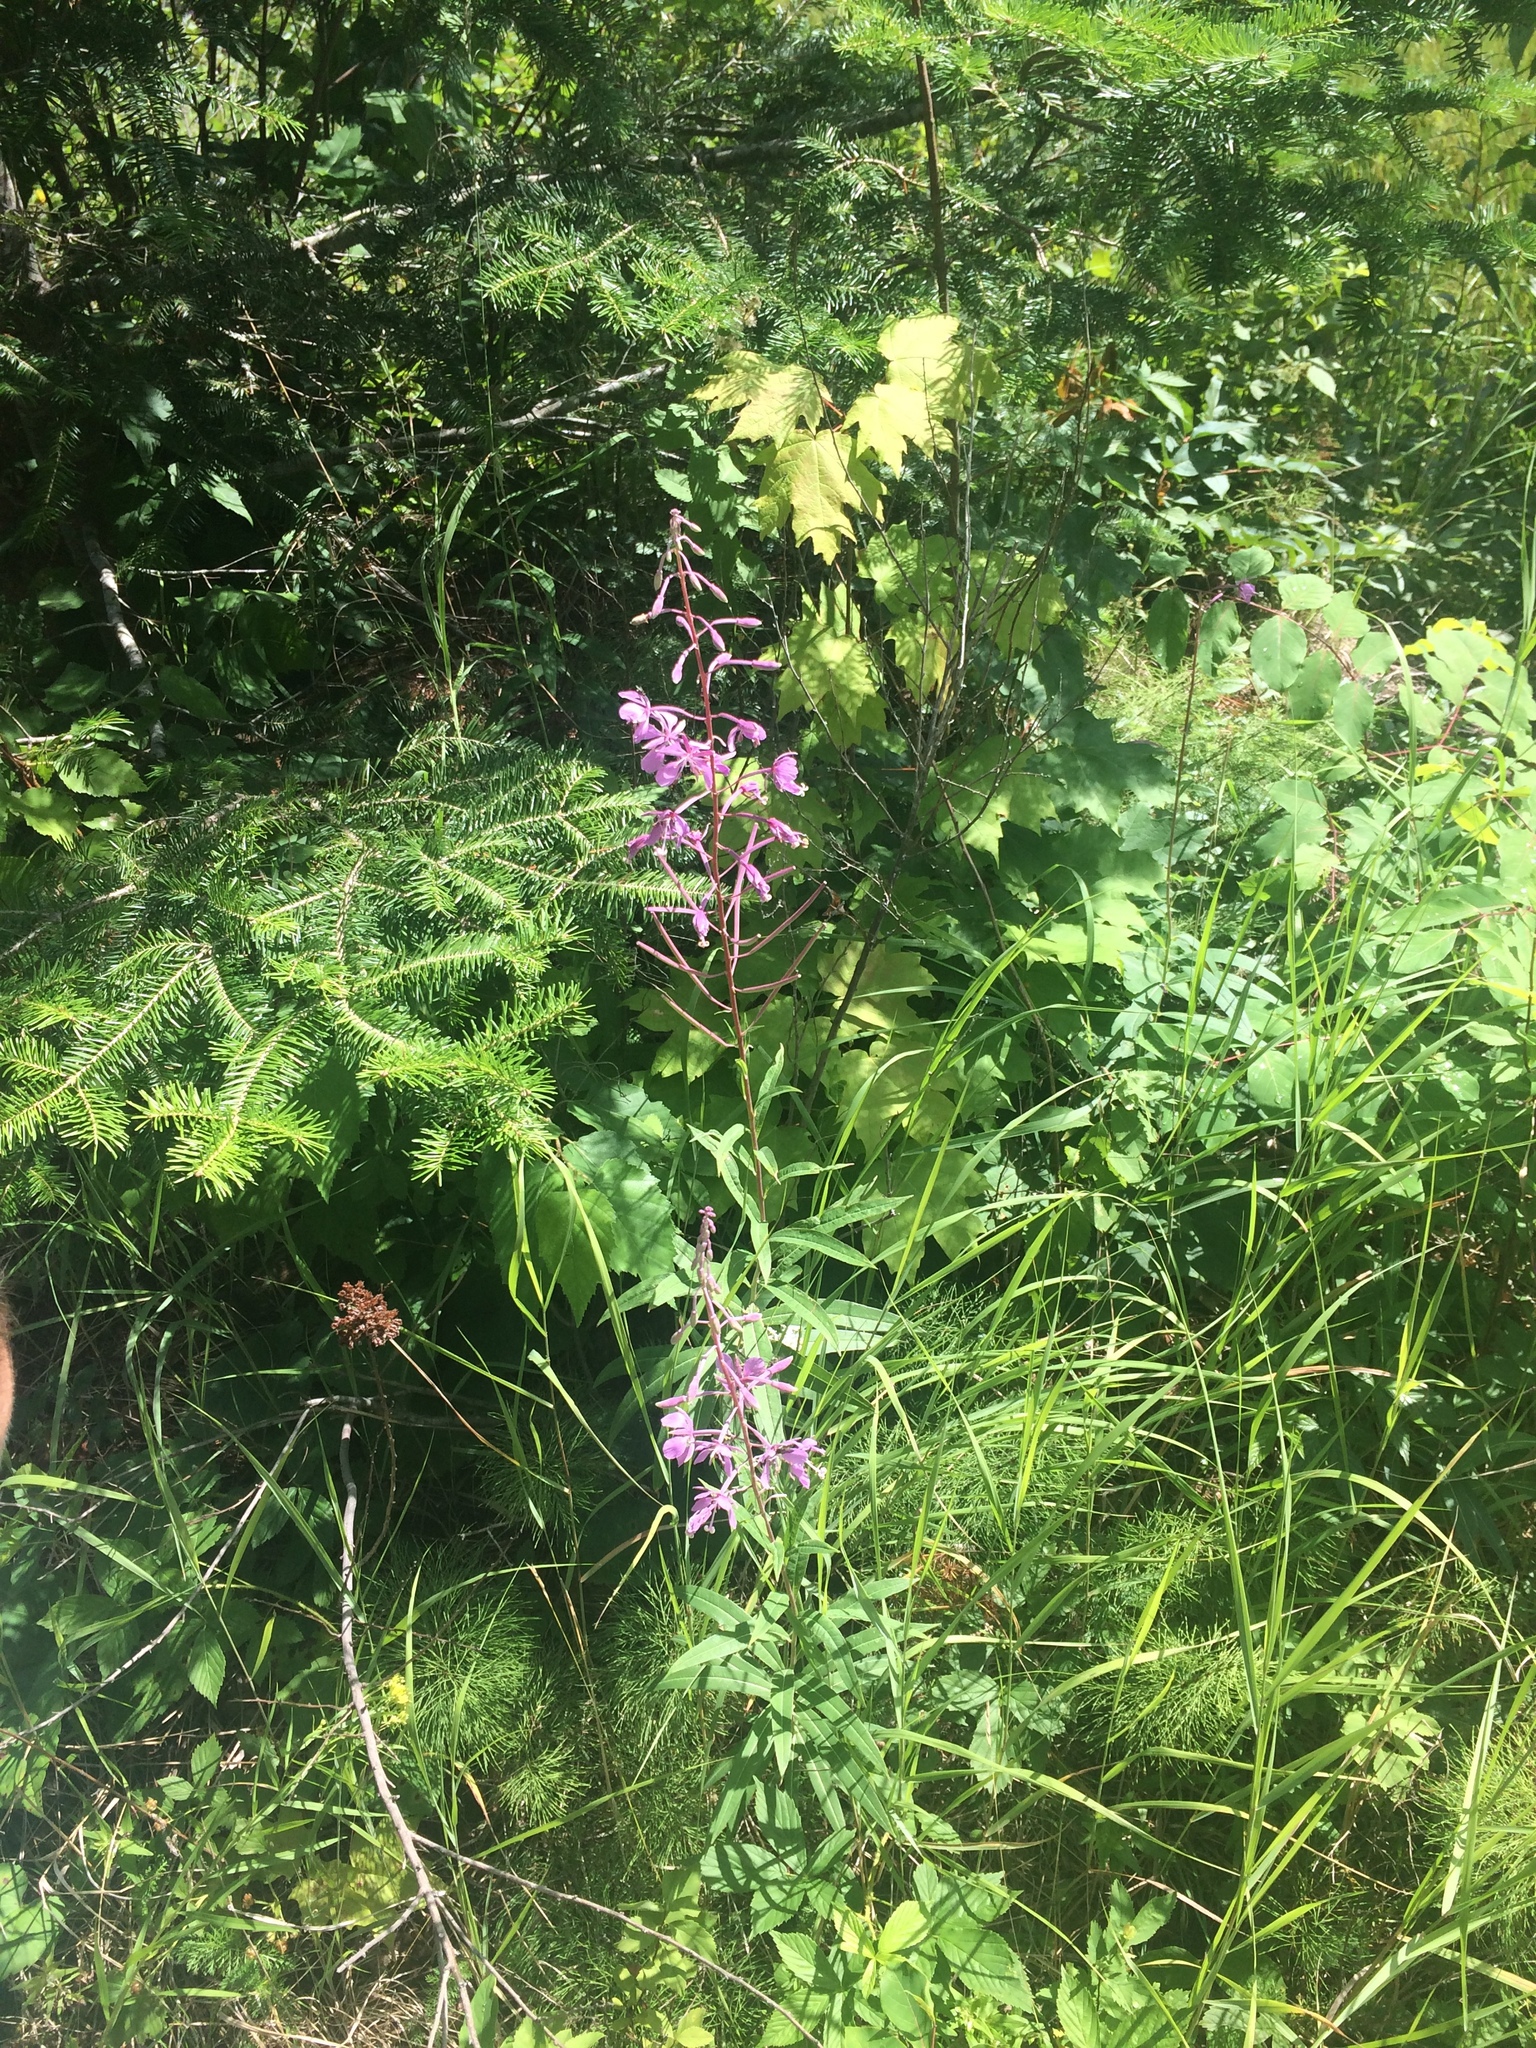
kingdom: Plantae
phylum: Tracheophyta
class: Magnoliopsida
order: Myrtales
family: Onagraceae
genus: Chamaenerion
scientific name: Chamaenerion angustifolium
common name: Fireweed
